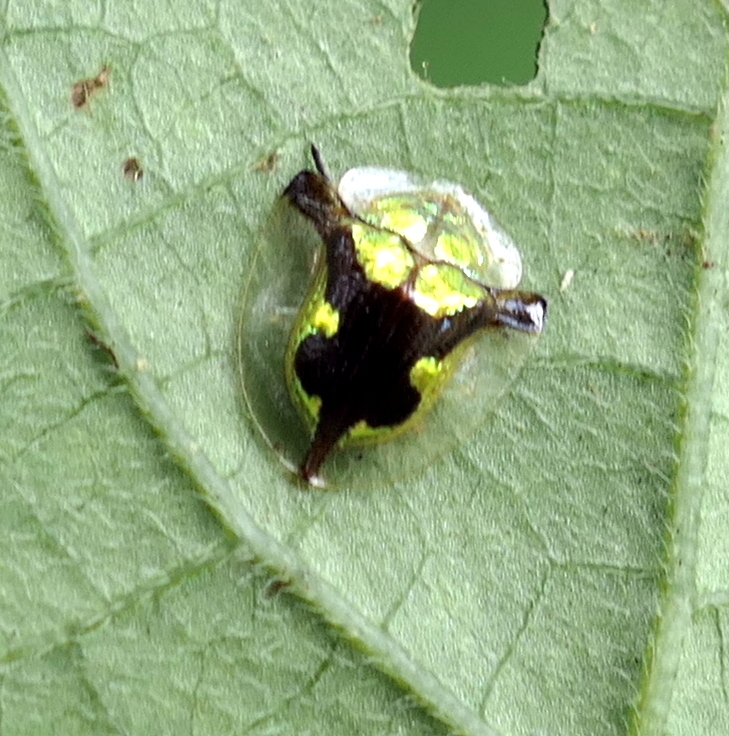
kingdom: Animalia
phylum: Arthropoda
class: Insecta
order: Coleoptera
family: Chrysomelidae
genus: Deloyala
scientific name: Deloyala cruciata
